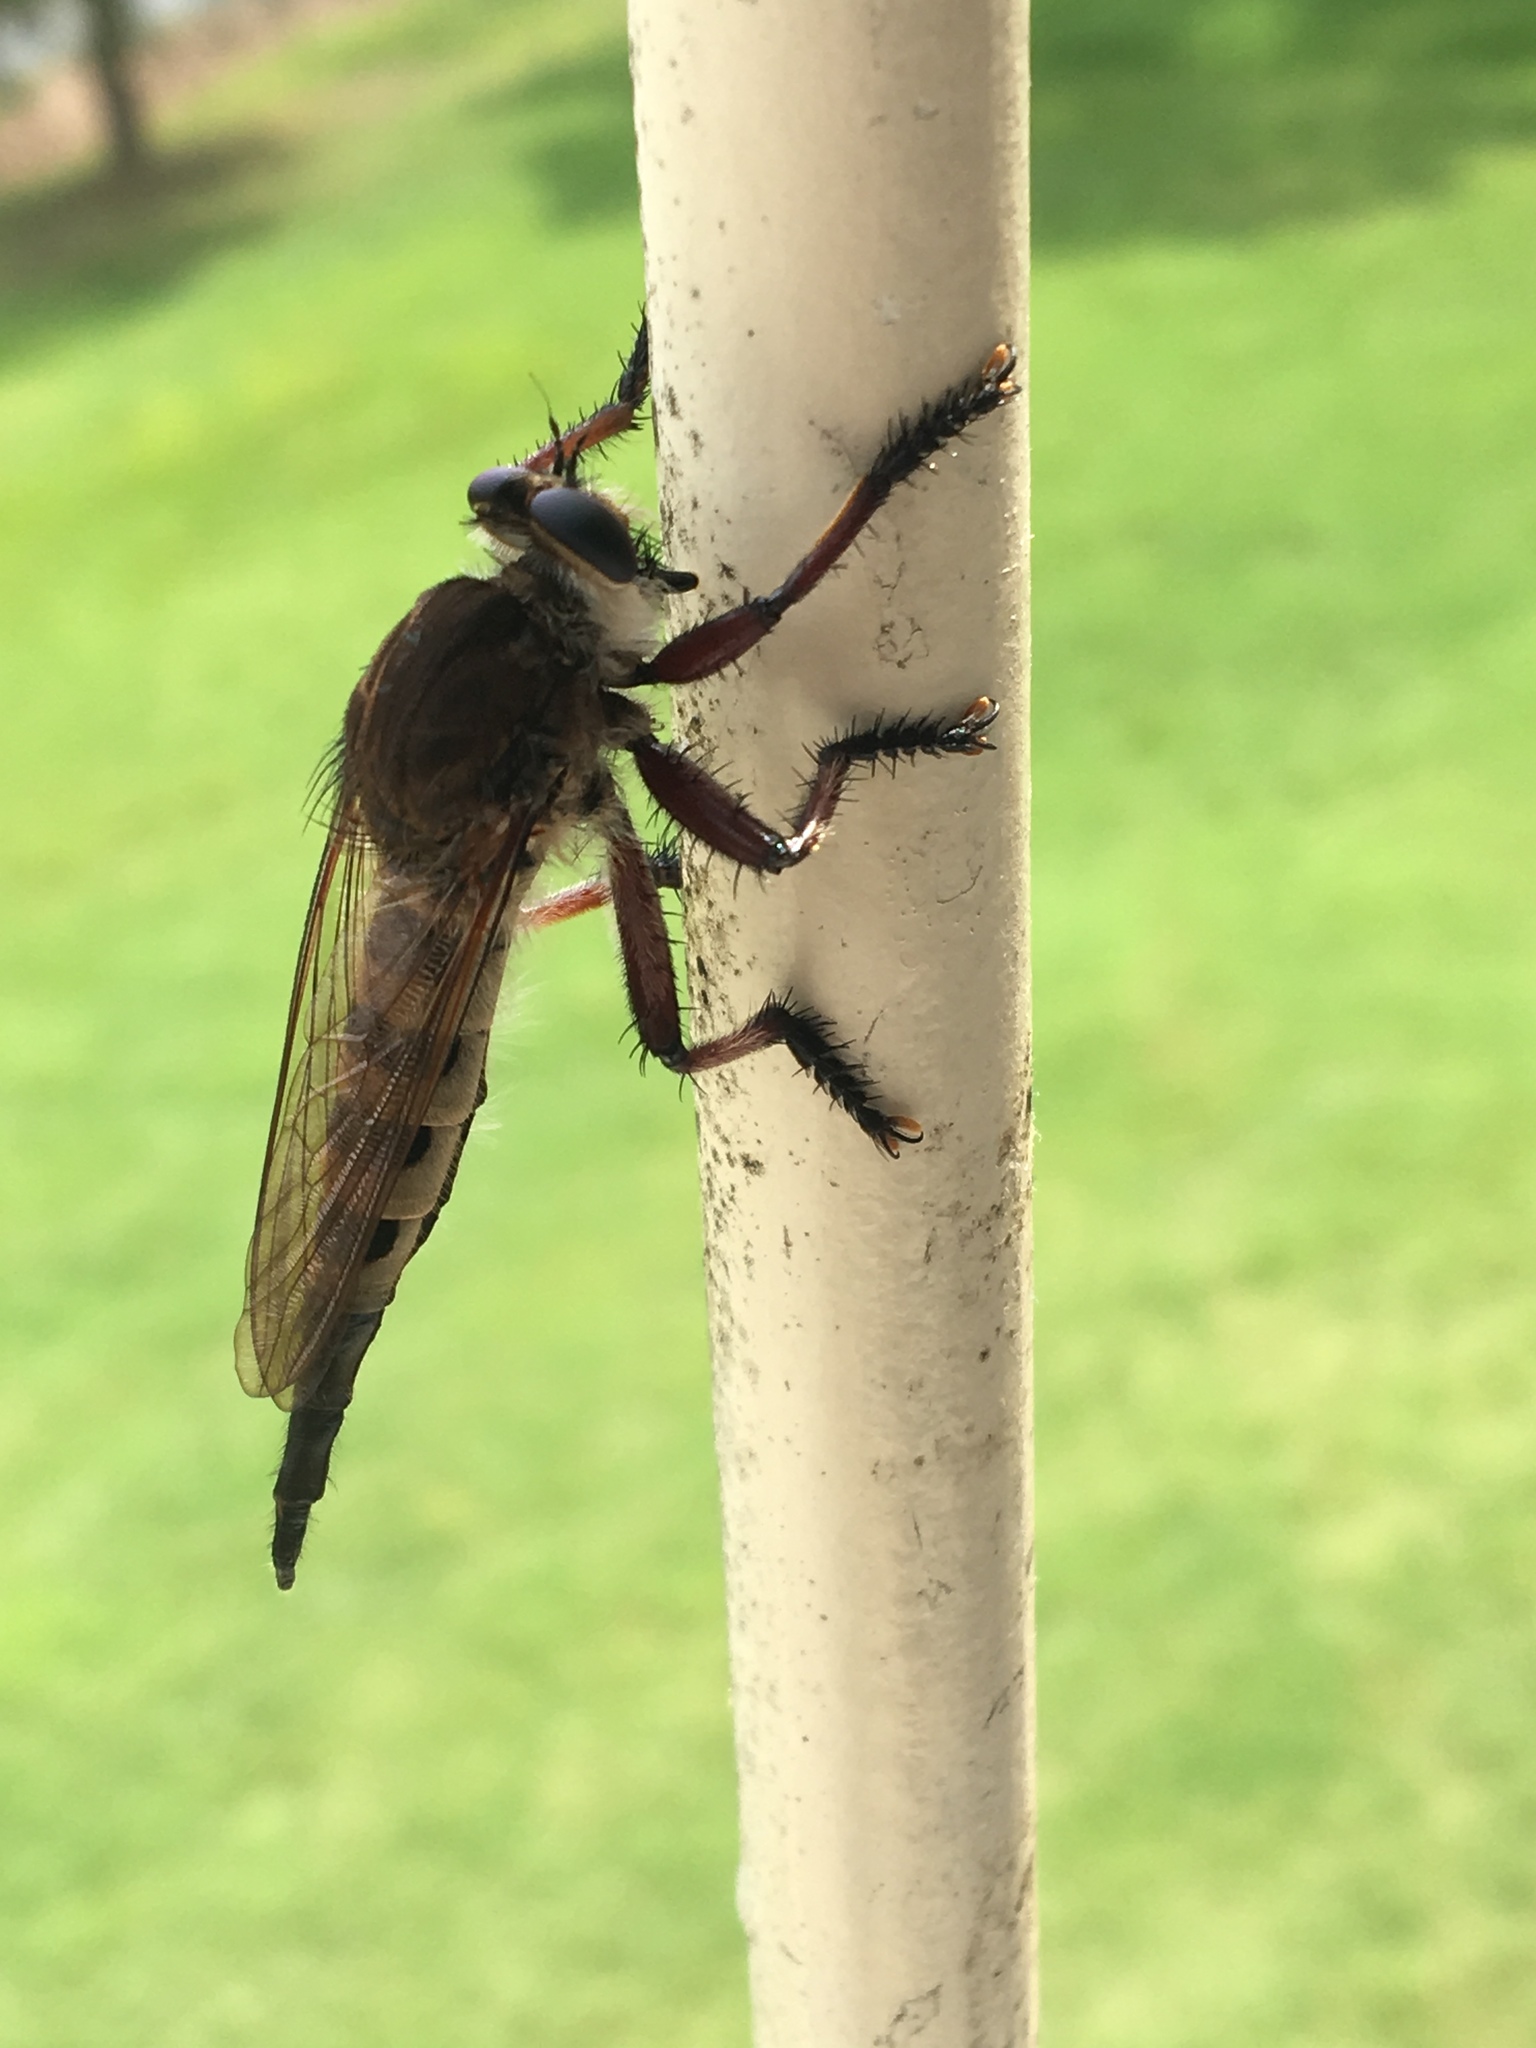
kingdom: Animalia
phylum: Arthropoda
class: Insecta
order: Diptera
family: Asilidae
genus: Promachus
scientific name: Promachus hinei
